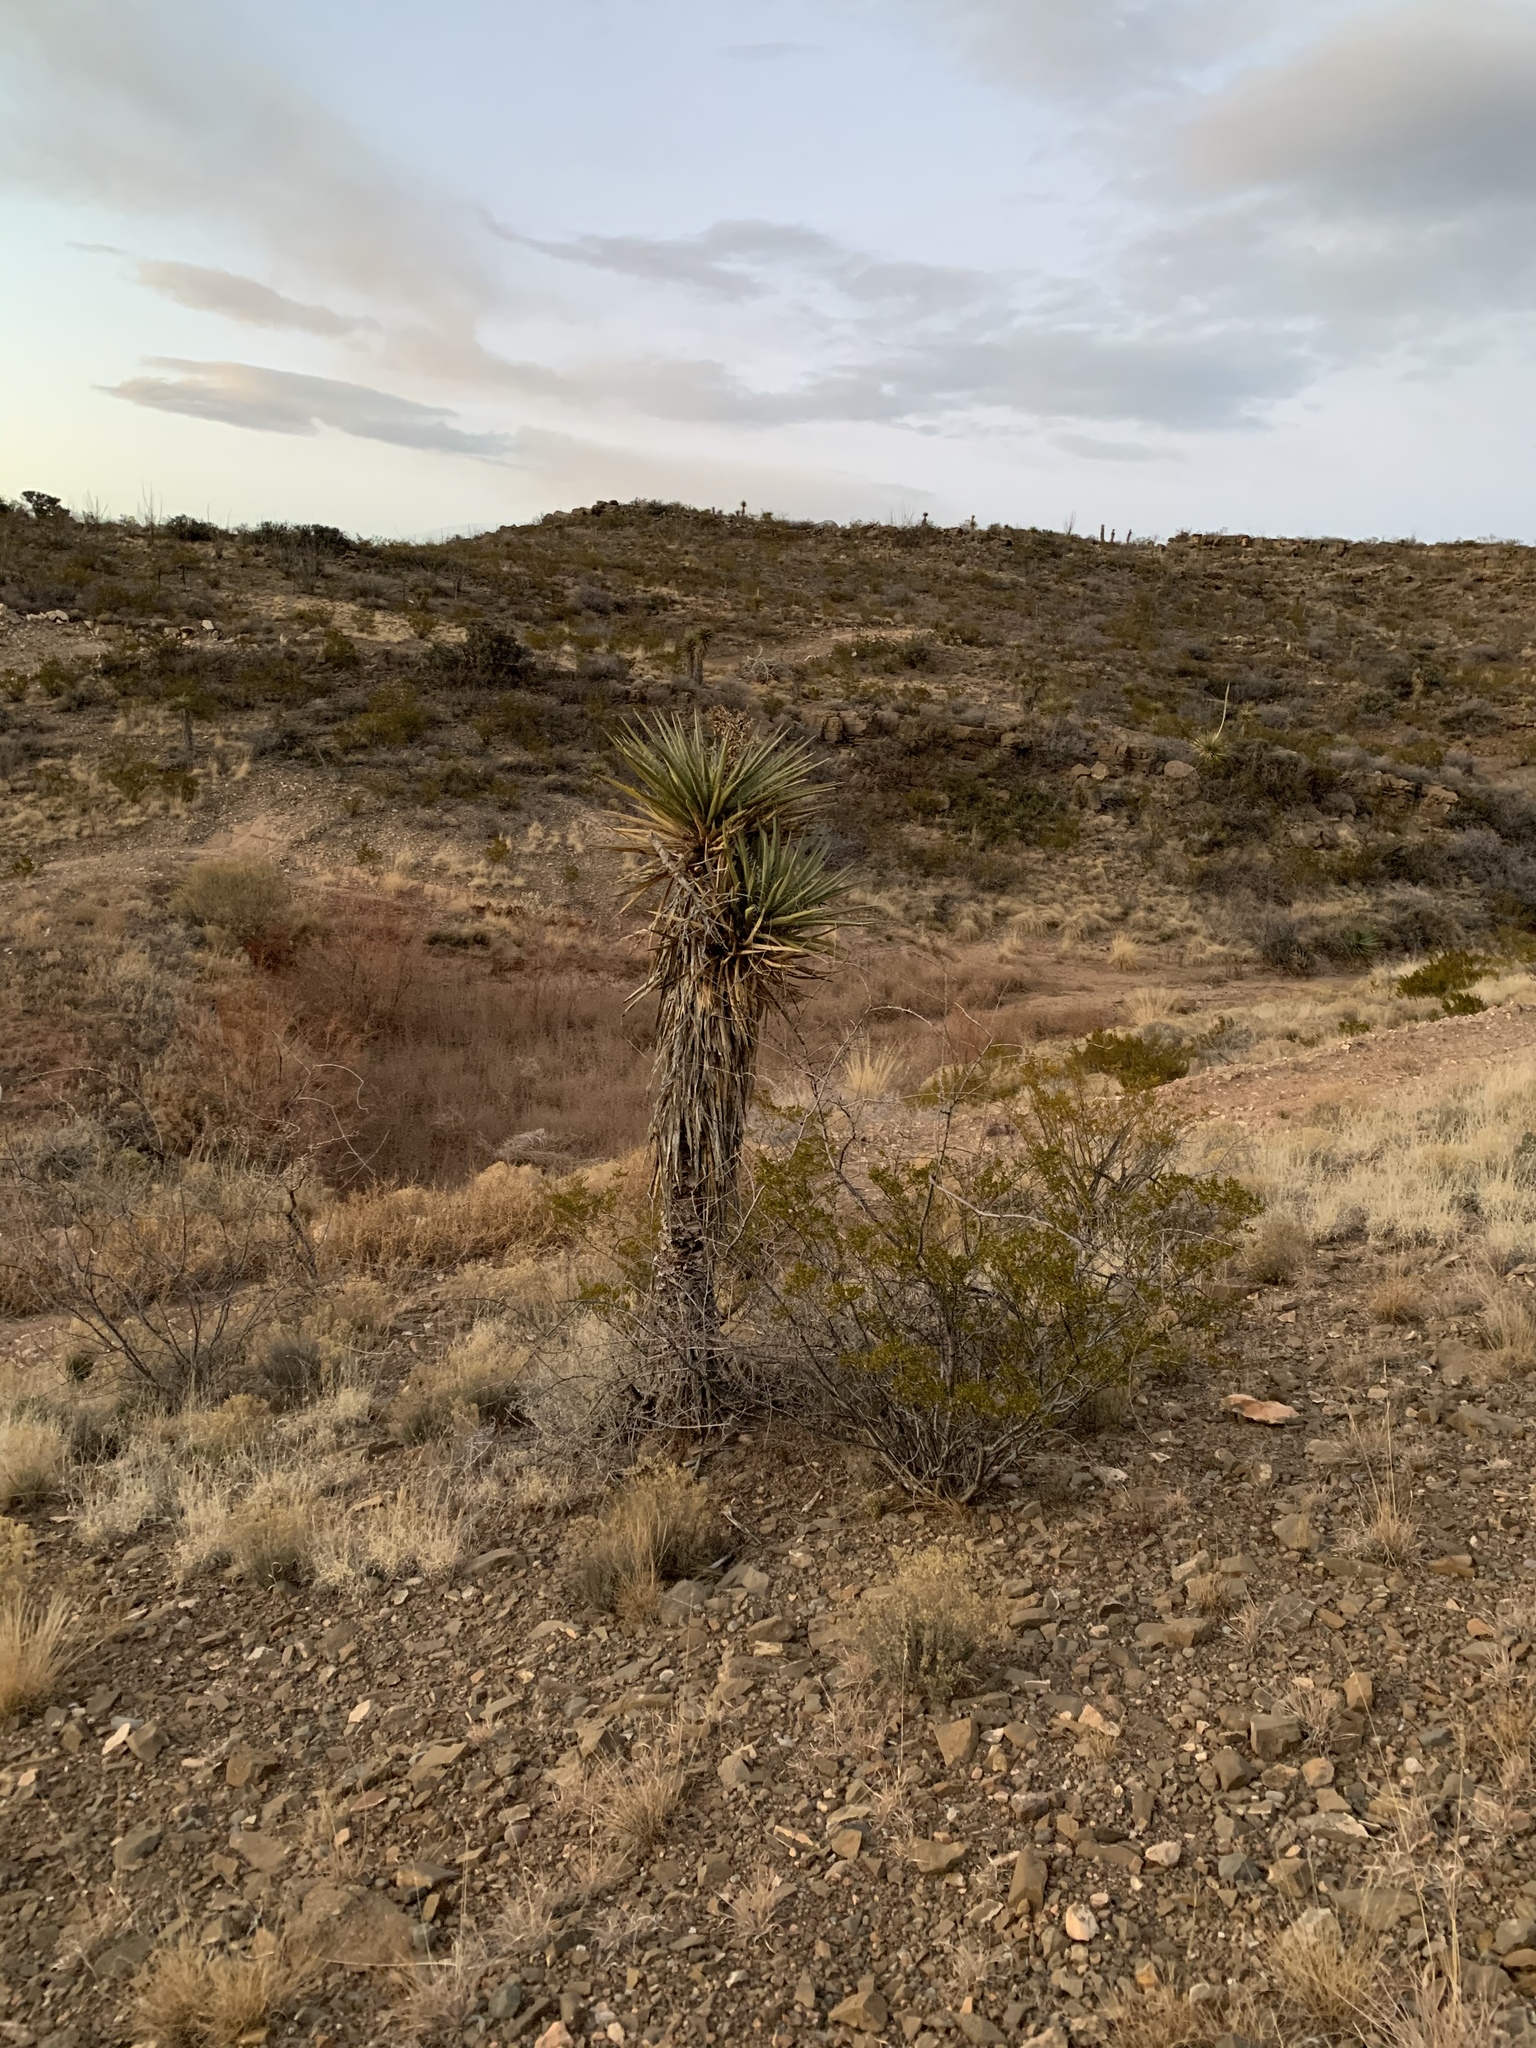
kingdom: Plantae
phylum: Tracheophyta
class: Liliopsida
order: Asparagales
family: Asparagaceae
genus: Yucca
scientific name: Yucca treculiana
